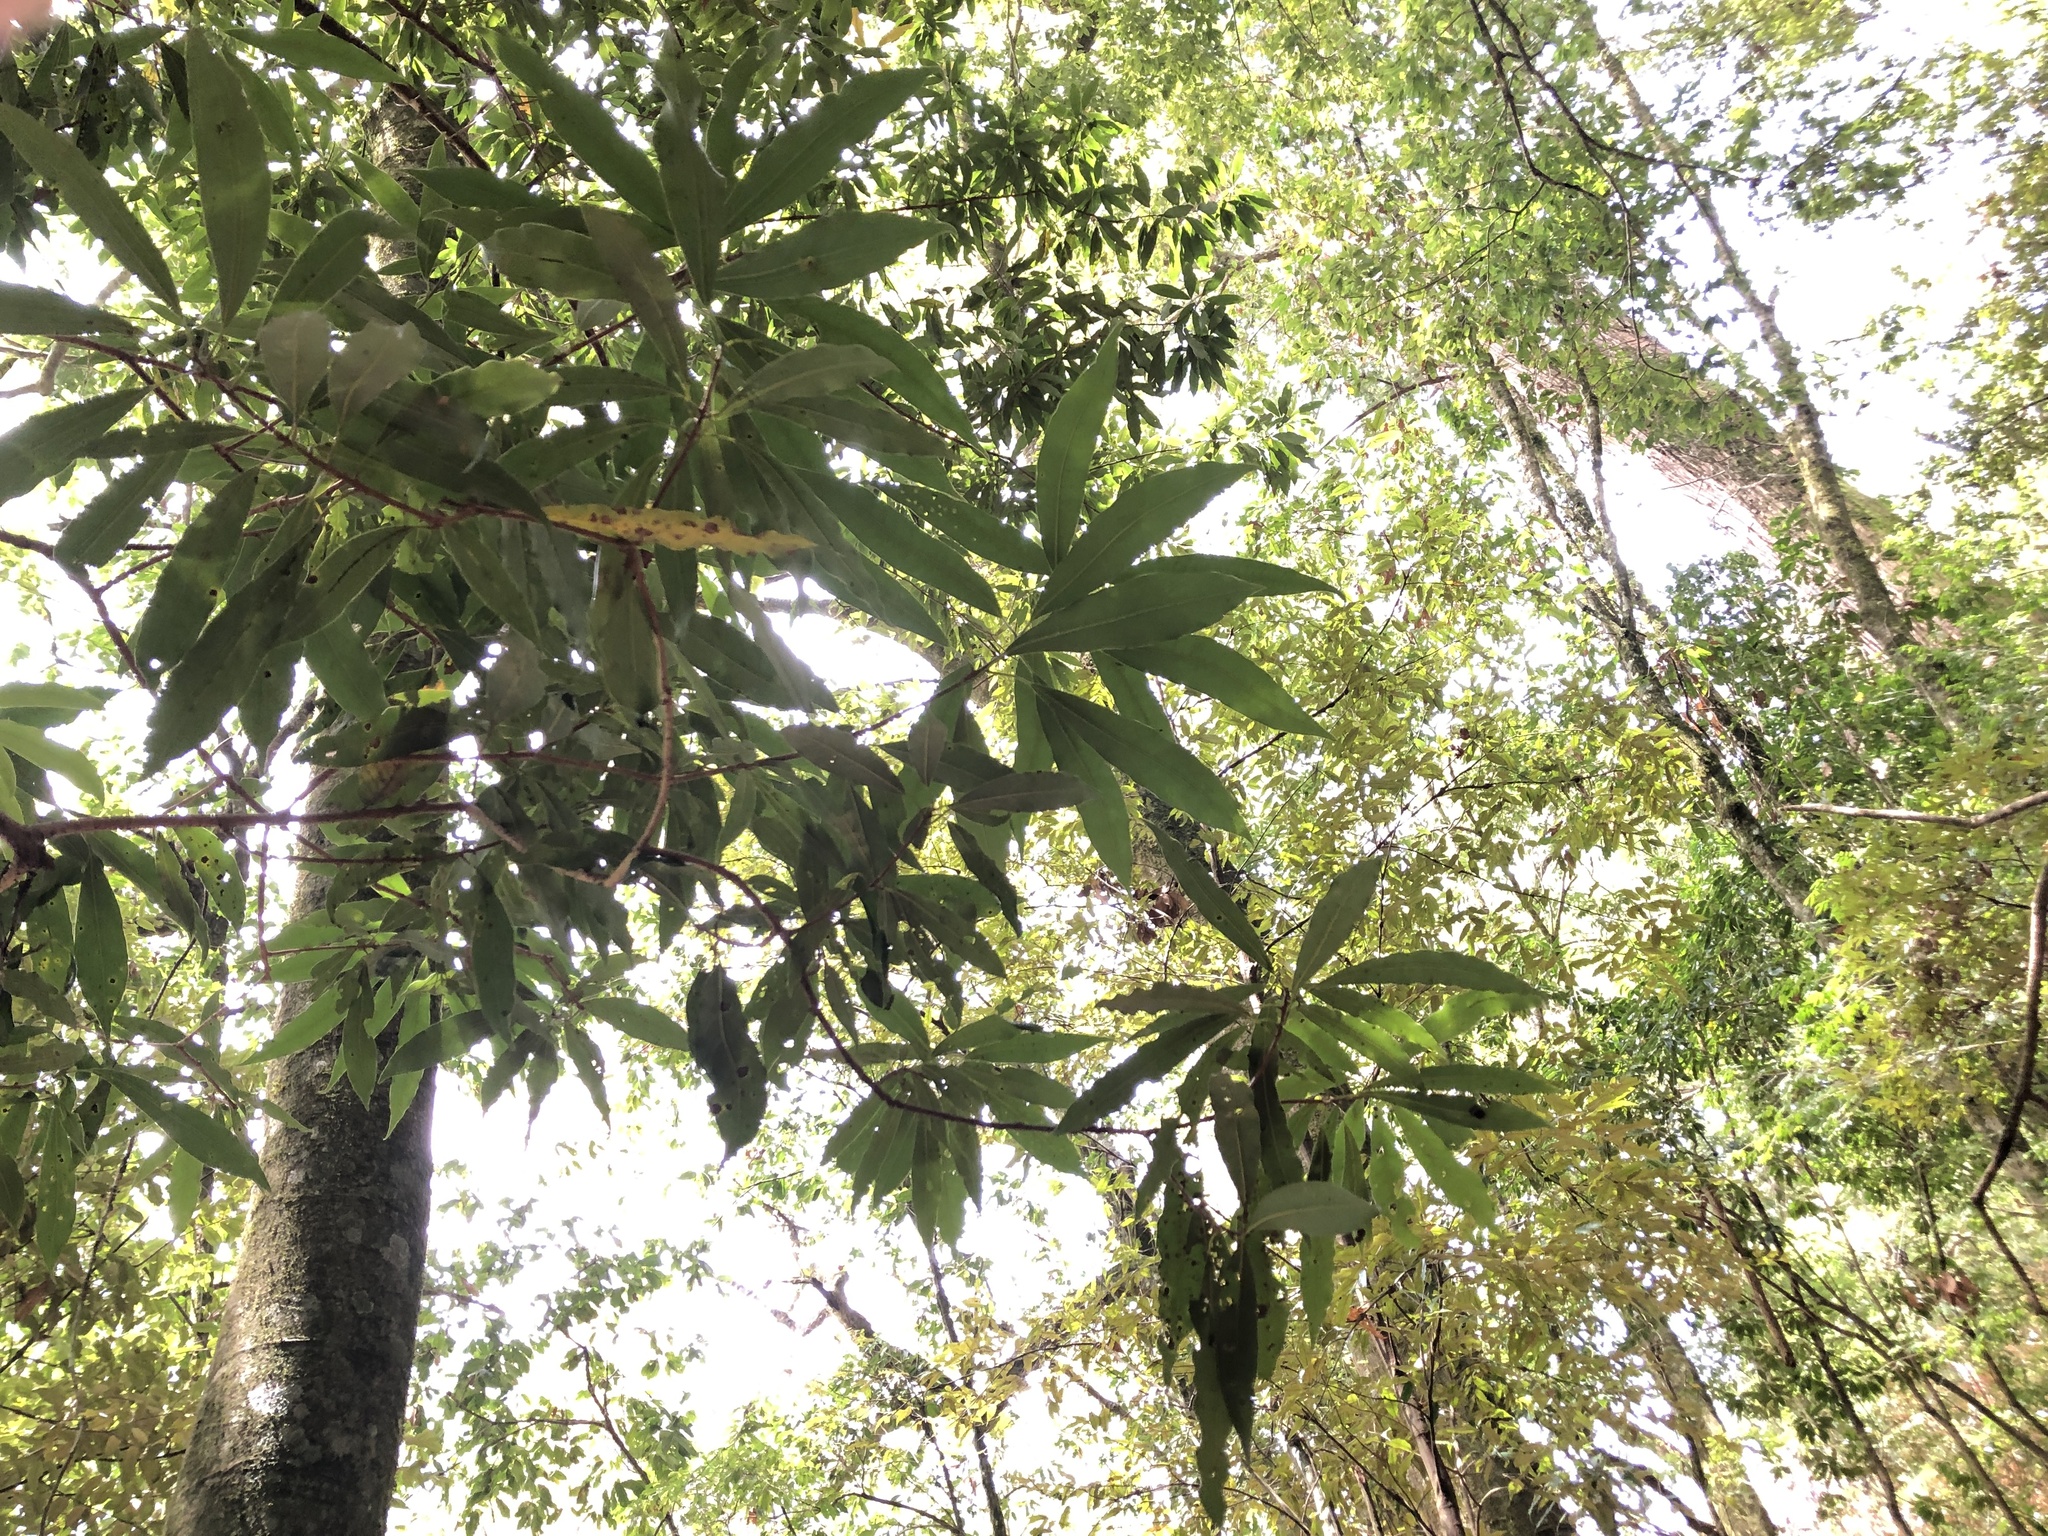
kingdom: Plantae
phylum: Tracheophyta
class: Magnoliopsida
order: Laurales
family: Lauraceae
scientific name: Lauraceae
